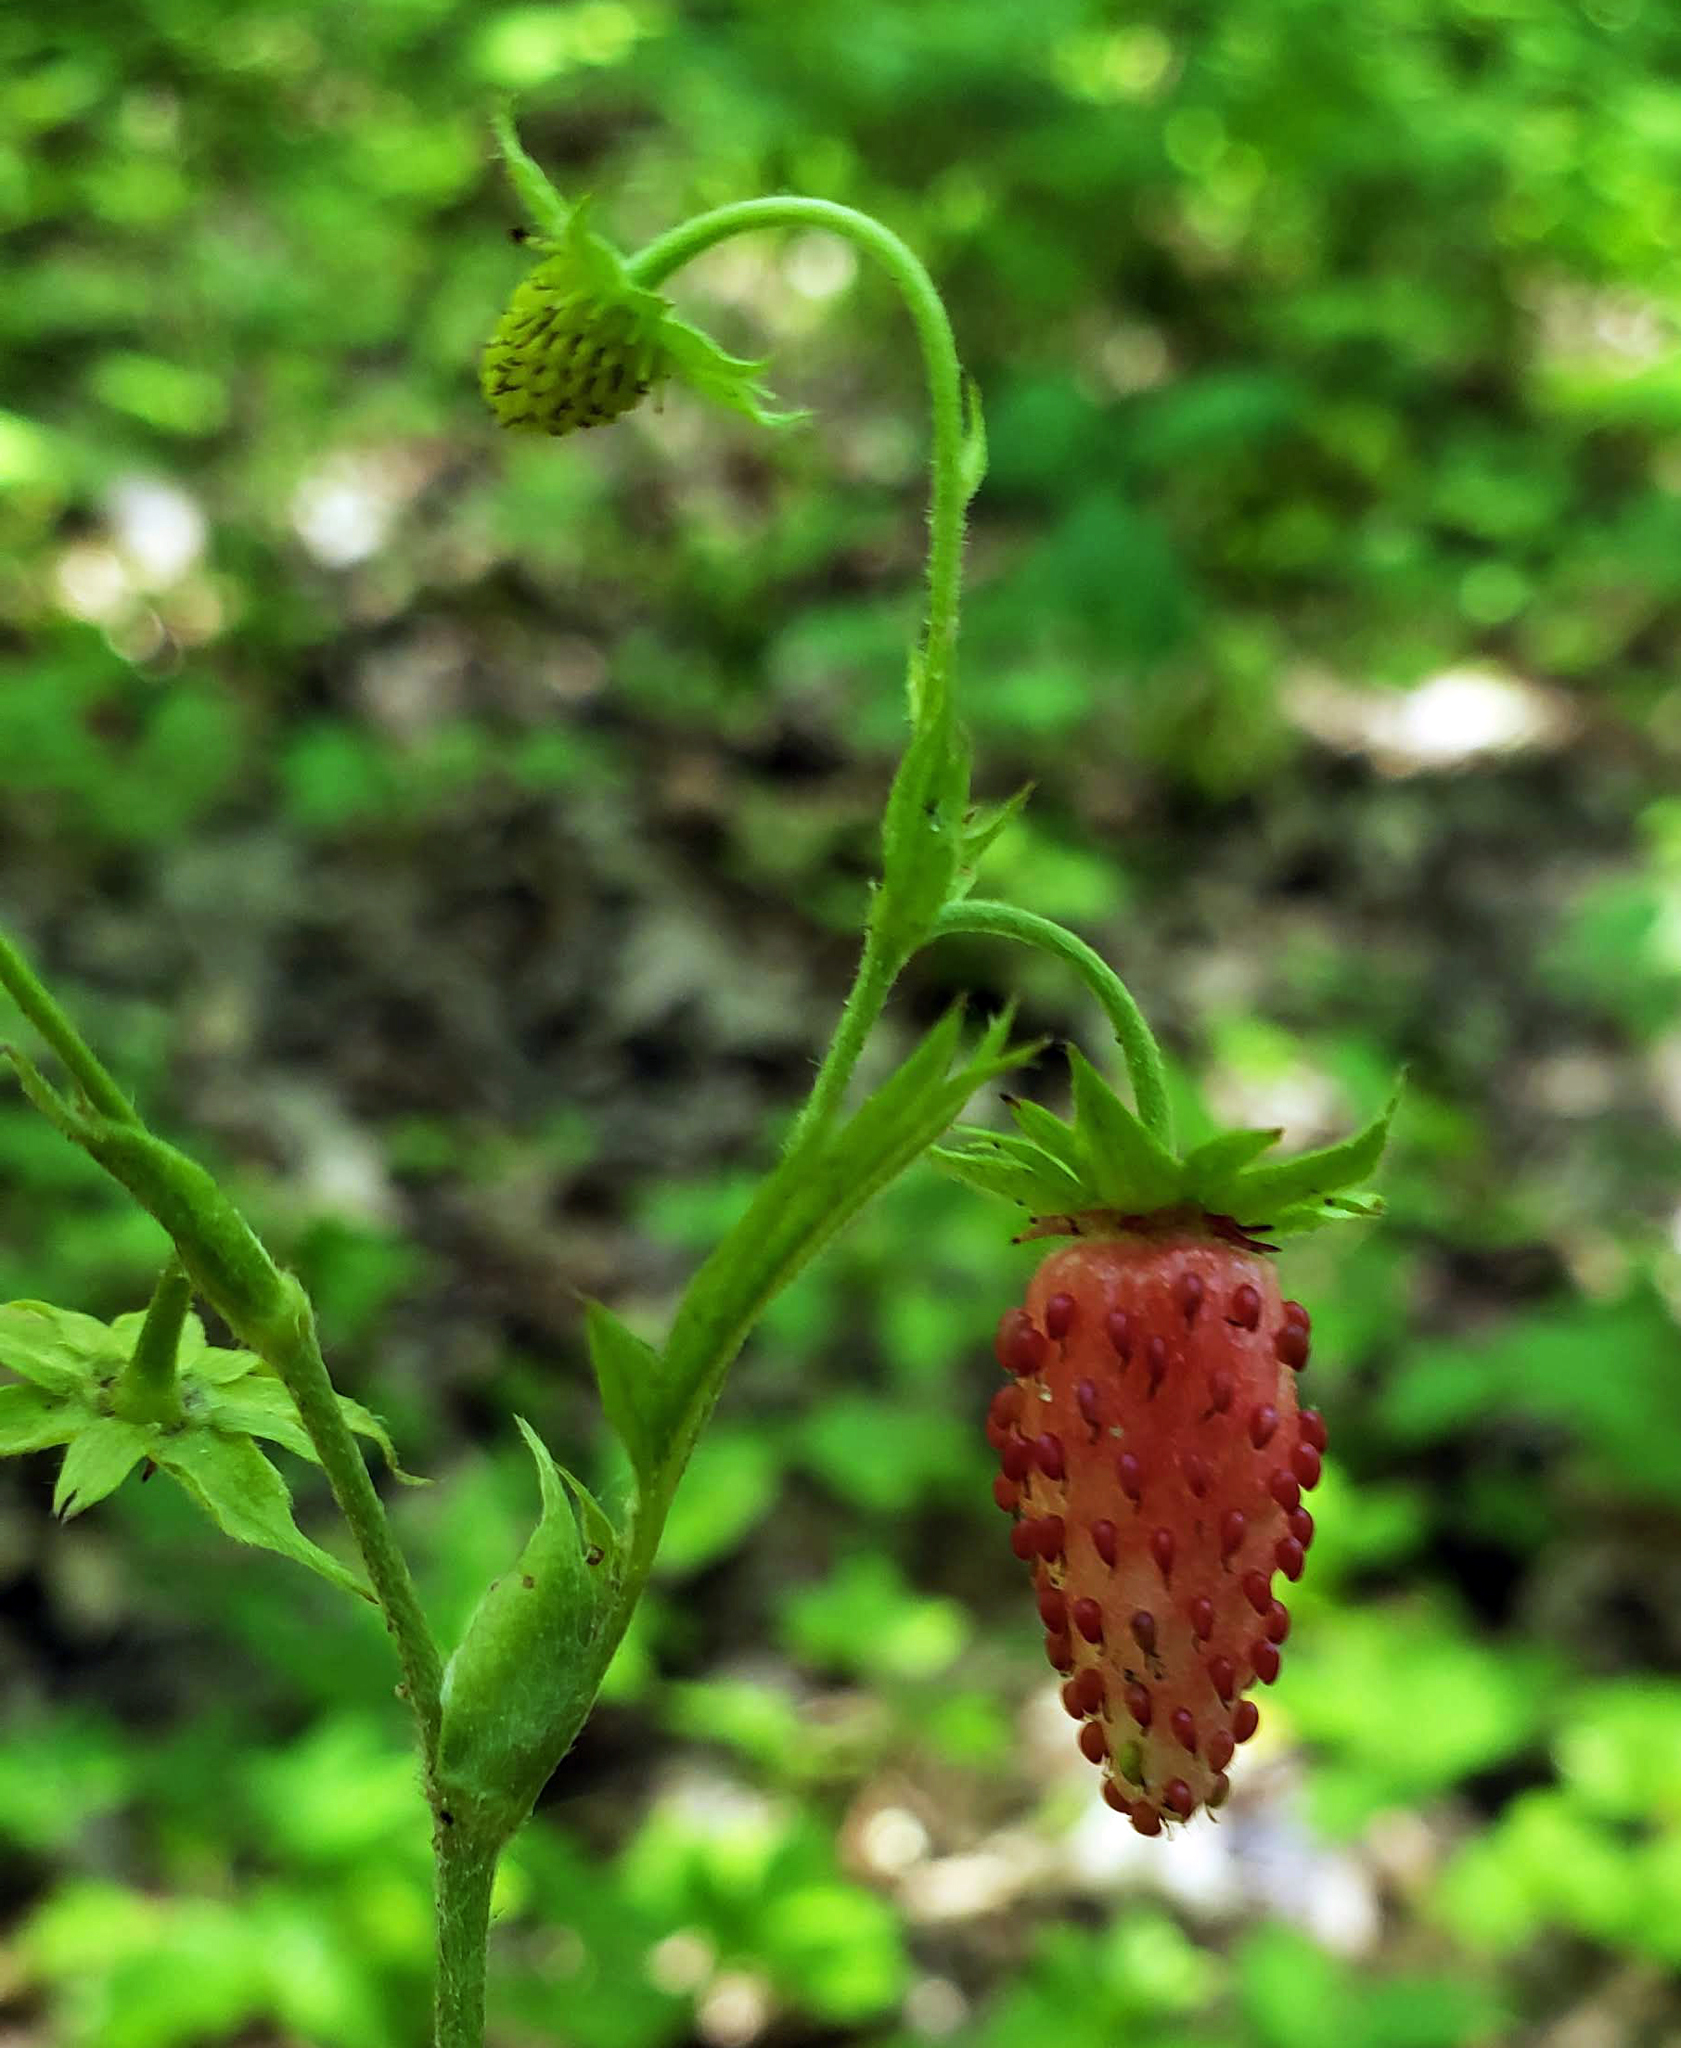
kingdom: Plantae
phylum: Tracheophyta
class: Magnoliopsida
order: Rosales
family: Rosaceae
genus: Fragaria
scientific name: Fragaria vesca
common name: Wild strawberry
